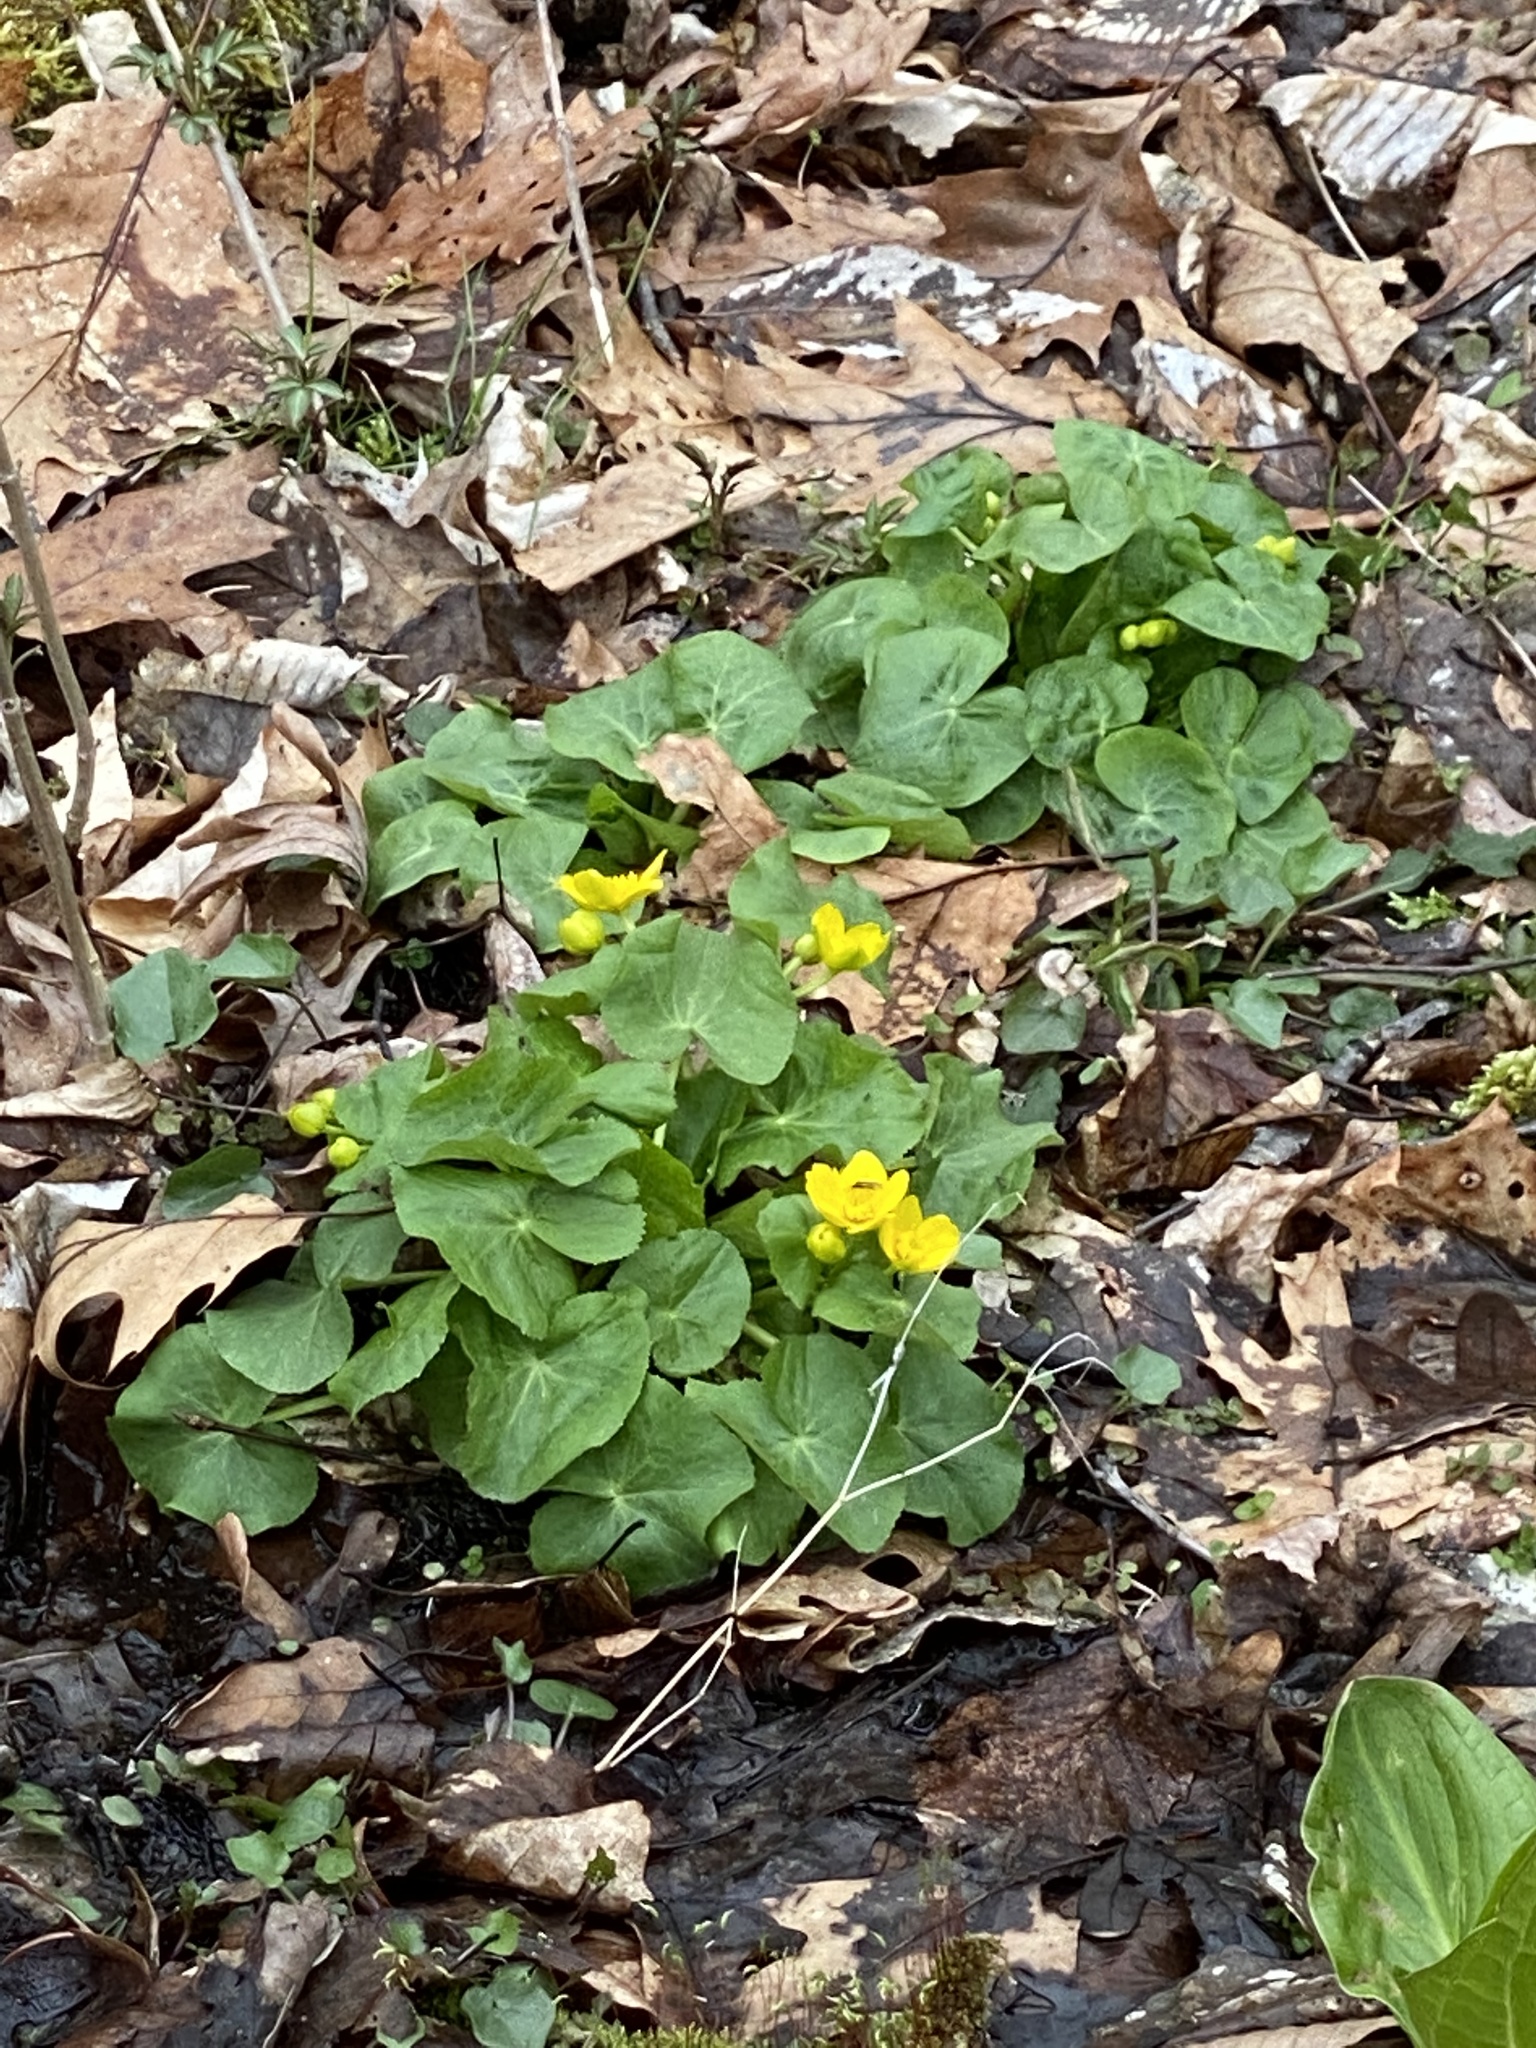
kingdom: Plantae
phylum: Tracheophyta
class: Magnoliopsida
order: Ranunculales
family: Ranunculaceae
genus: Caltha
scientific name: Caltha palustris
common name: Marsh marigold
